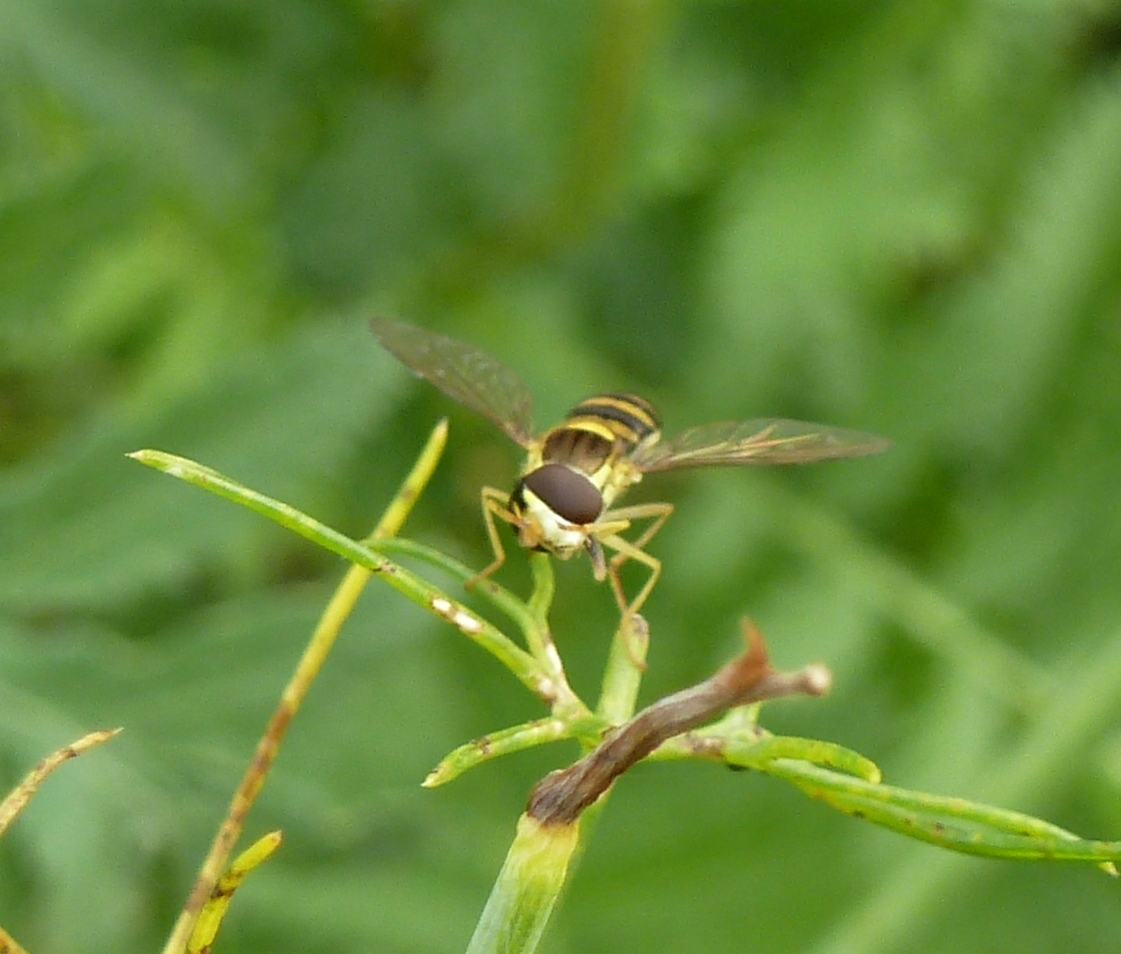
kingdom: Animalia
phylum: Arthropoda
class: Insecta
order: Diptera
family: Syrphidae
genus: Sphaerophoria
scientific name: Sphaerophoria
